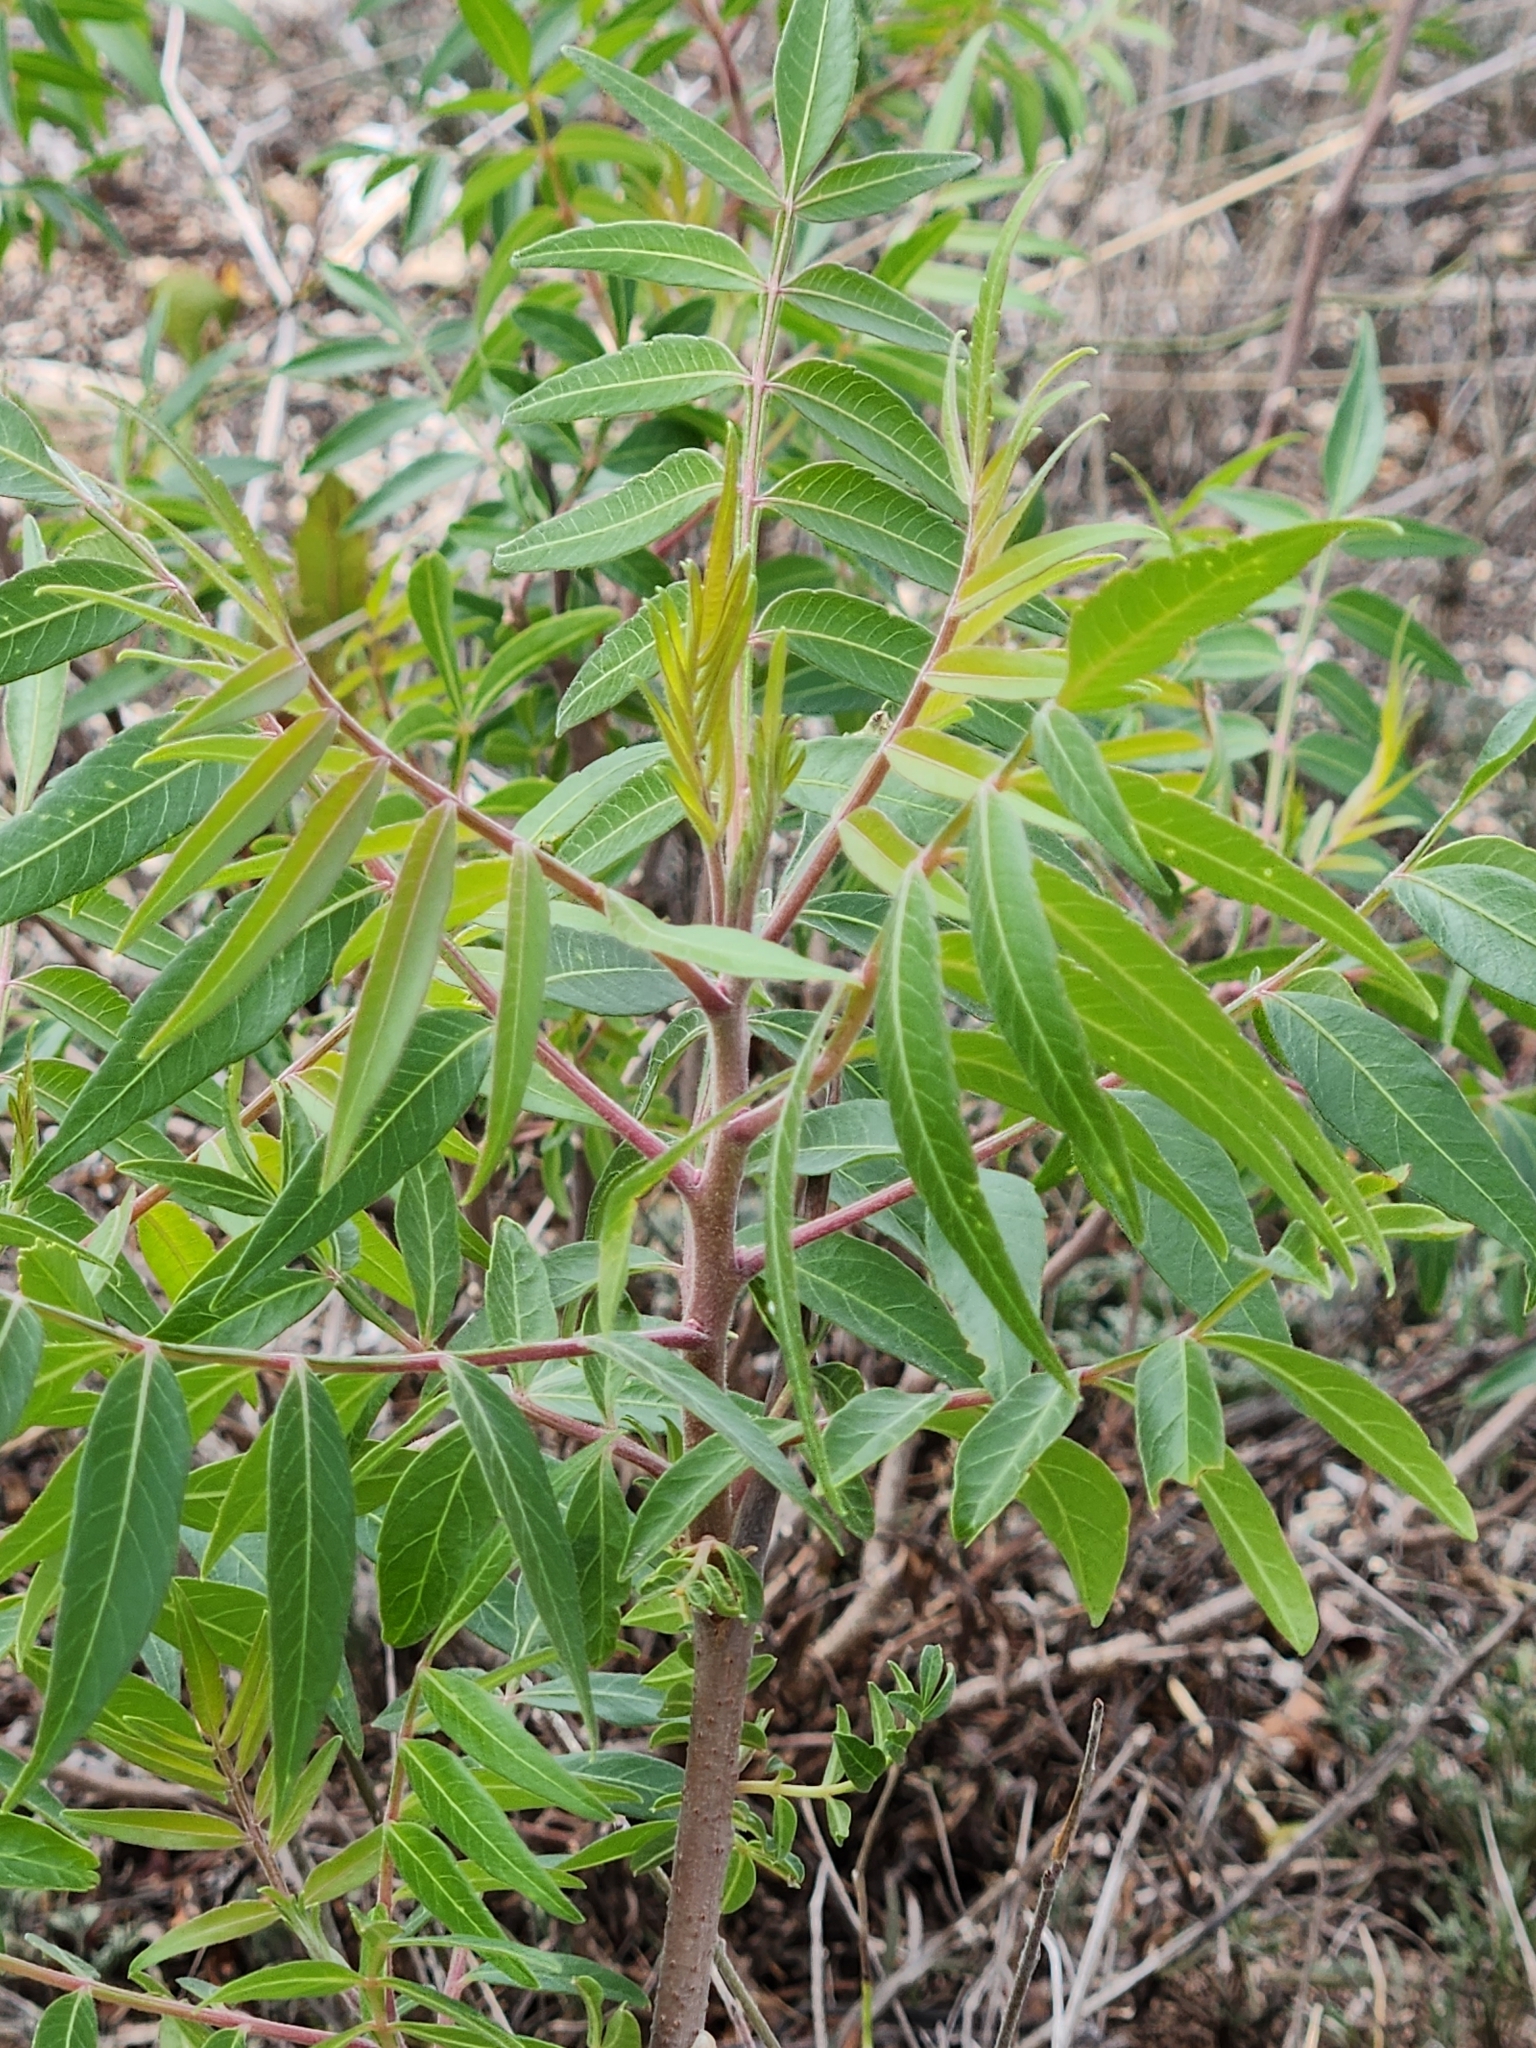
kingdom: Plantae
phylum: Tracheophyta
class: Magnoliopsida
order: Sapindales
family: Anacardiaceae
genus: Rhus
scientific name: Rhus lanceolata
